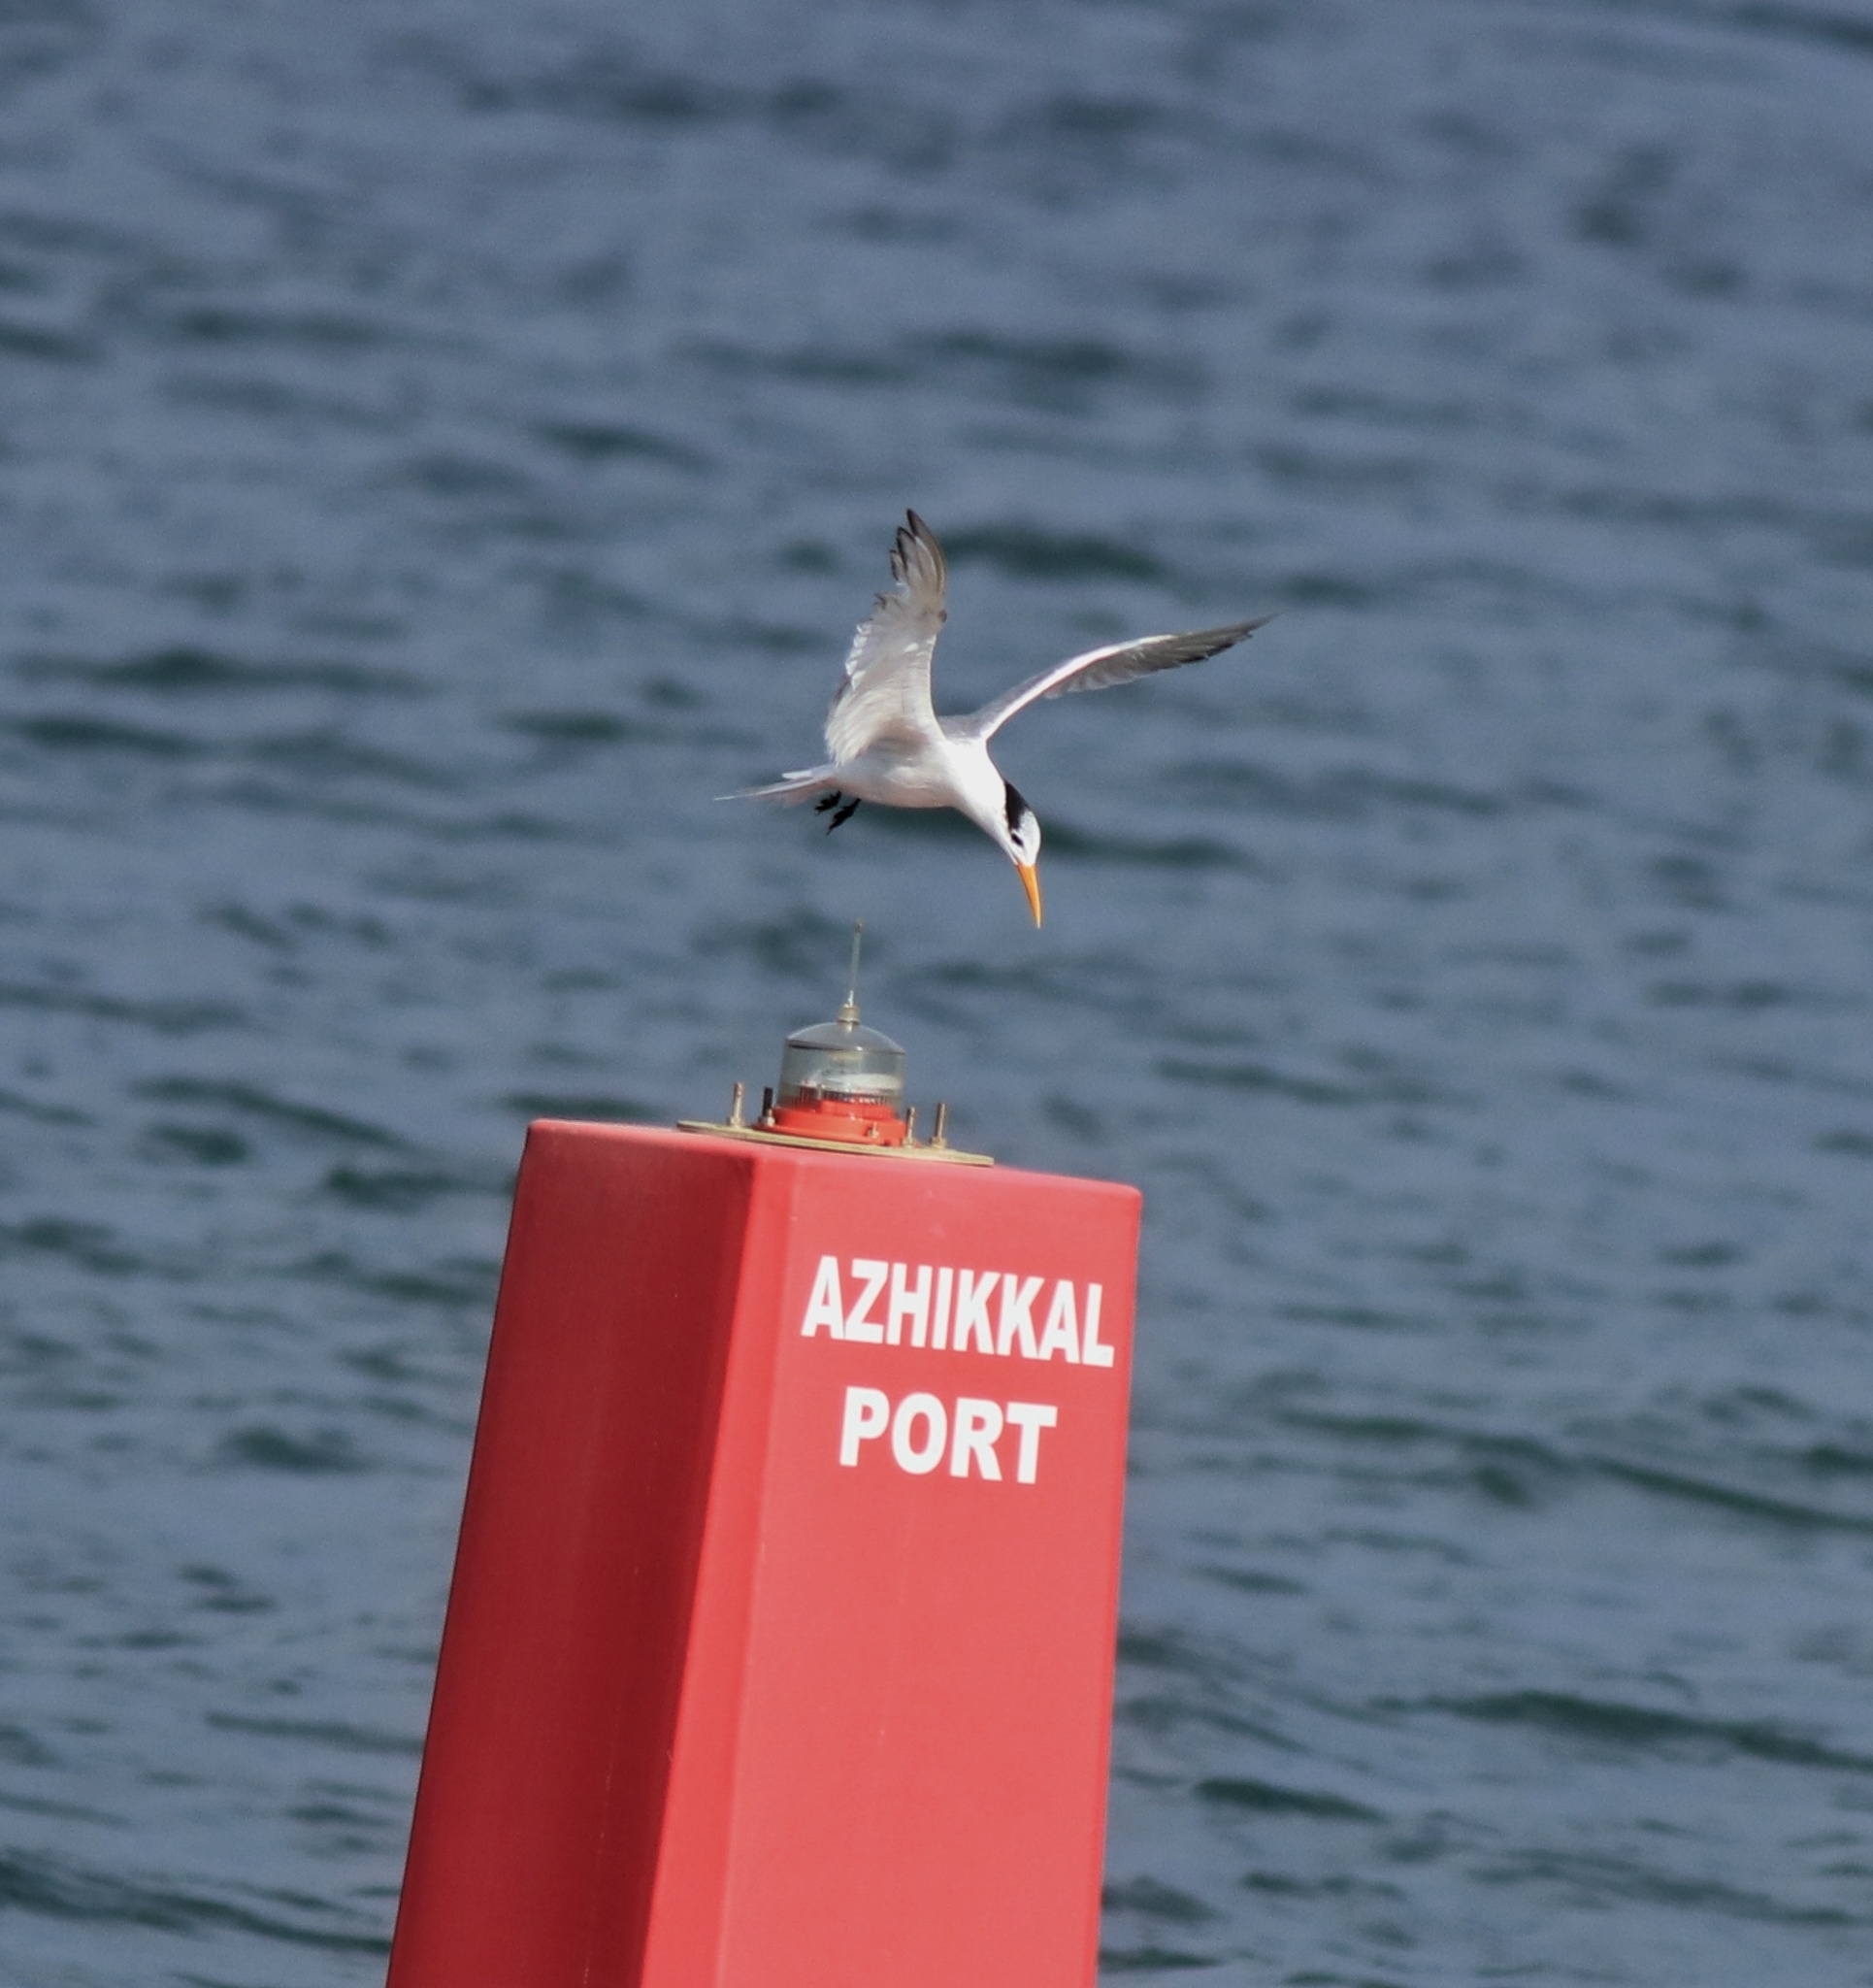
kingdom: Animalia
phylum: Chordata
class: Aves
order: Charadriiformes
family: Laridae
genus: Thalasseus
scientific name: Thalasseus bengalensis
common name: Lesser crested tern
